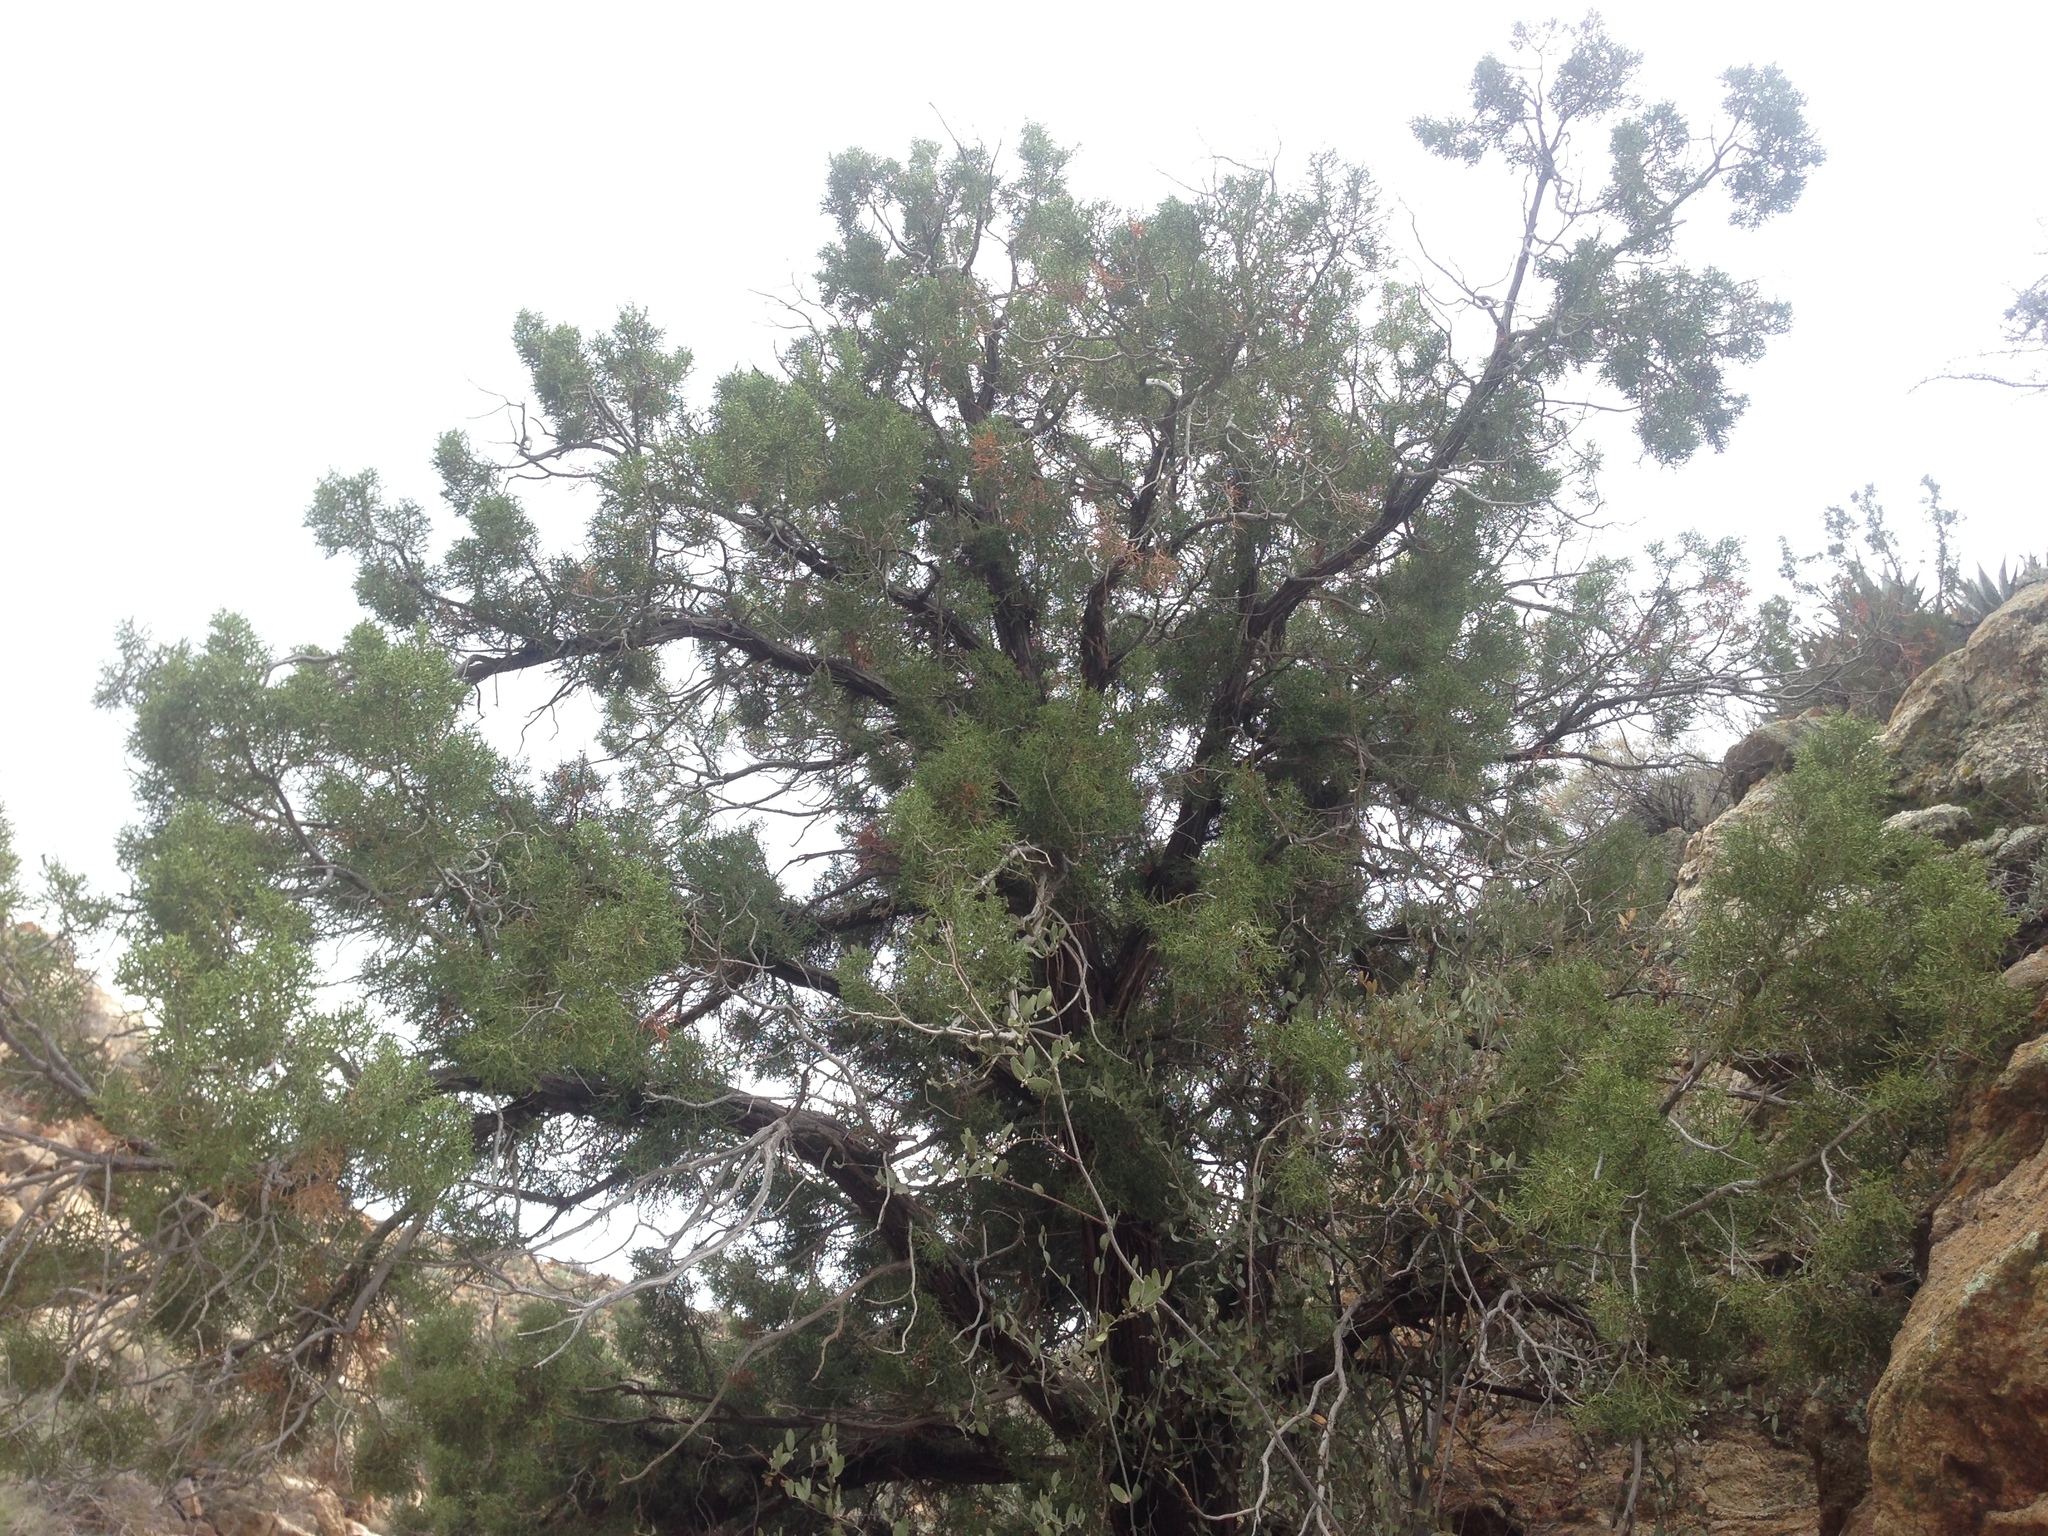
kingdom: Plantae
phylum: Tracheophyta
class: Pinopsida
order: Pinales
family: Cupressaceae
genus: Juniperus
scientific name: Juniperus californica
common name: California juniper
